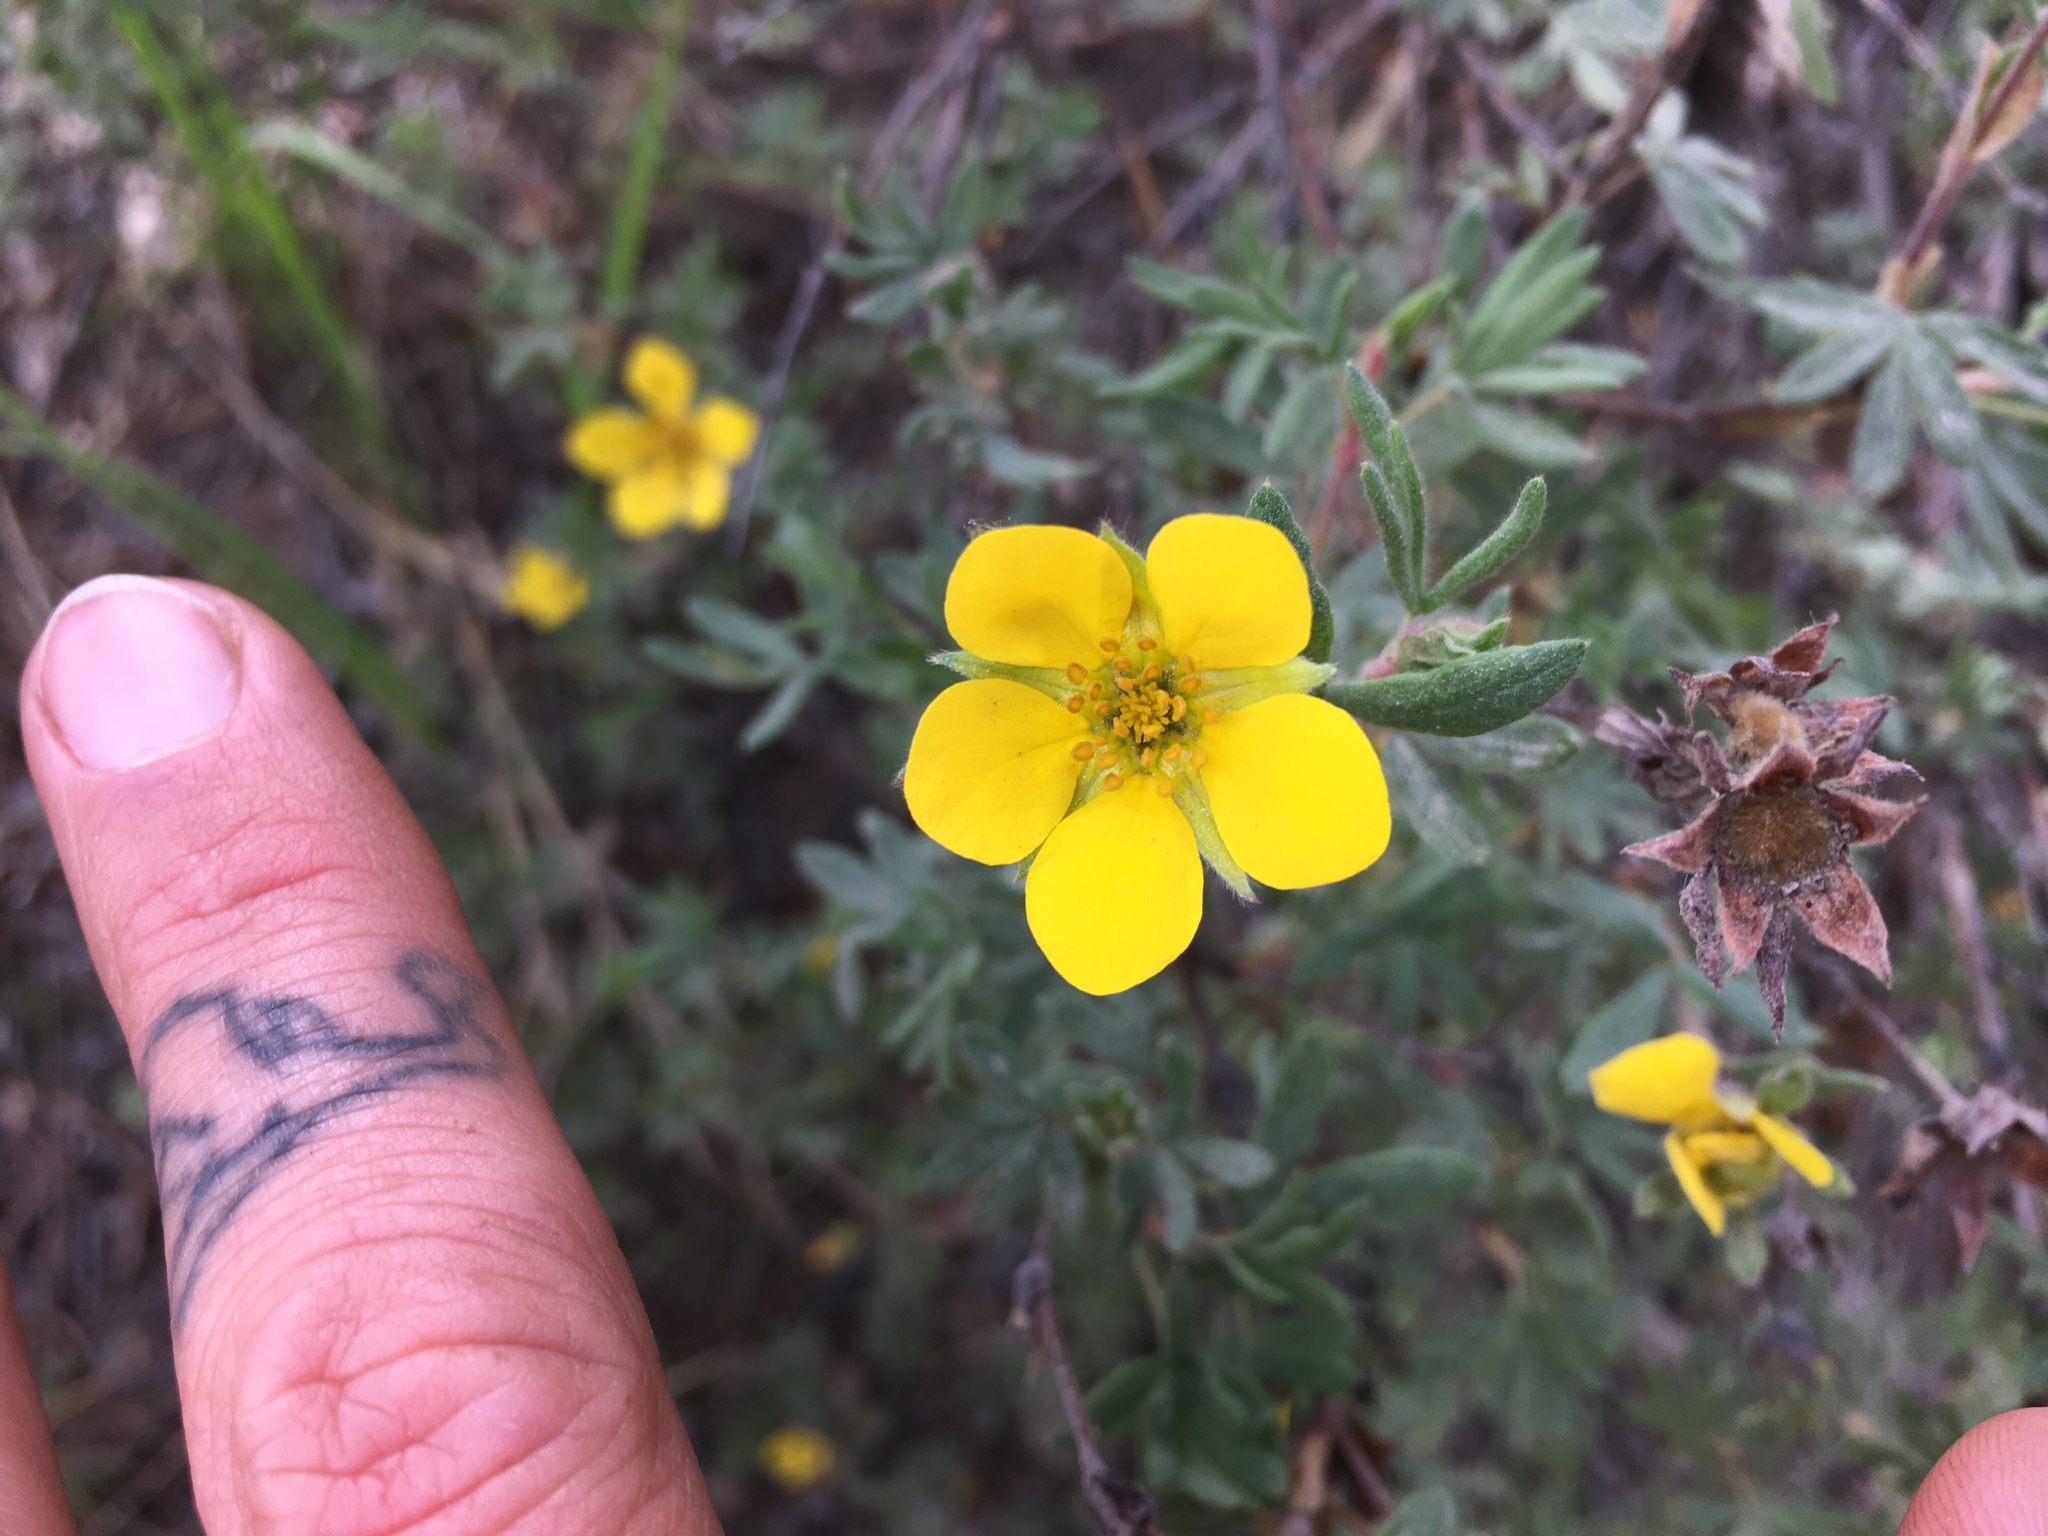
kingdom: Plantae
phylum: Tracheophyta
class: Magnoliopsida
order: Rosales
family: Rosaceae
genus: Dasiphora
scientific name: Dasiphora fruticosa
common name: Shrubby cinquefoil
